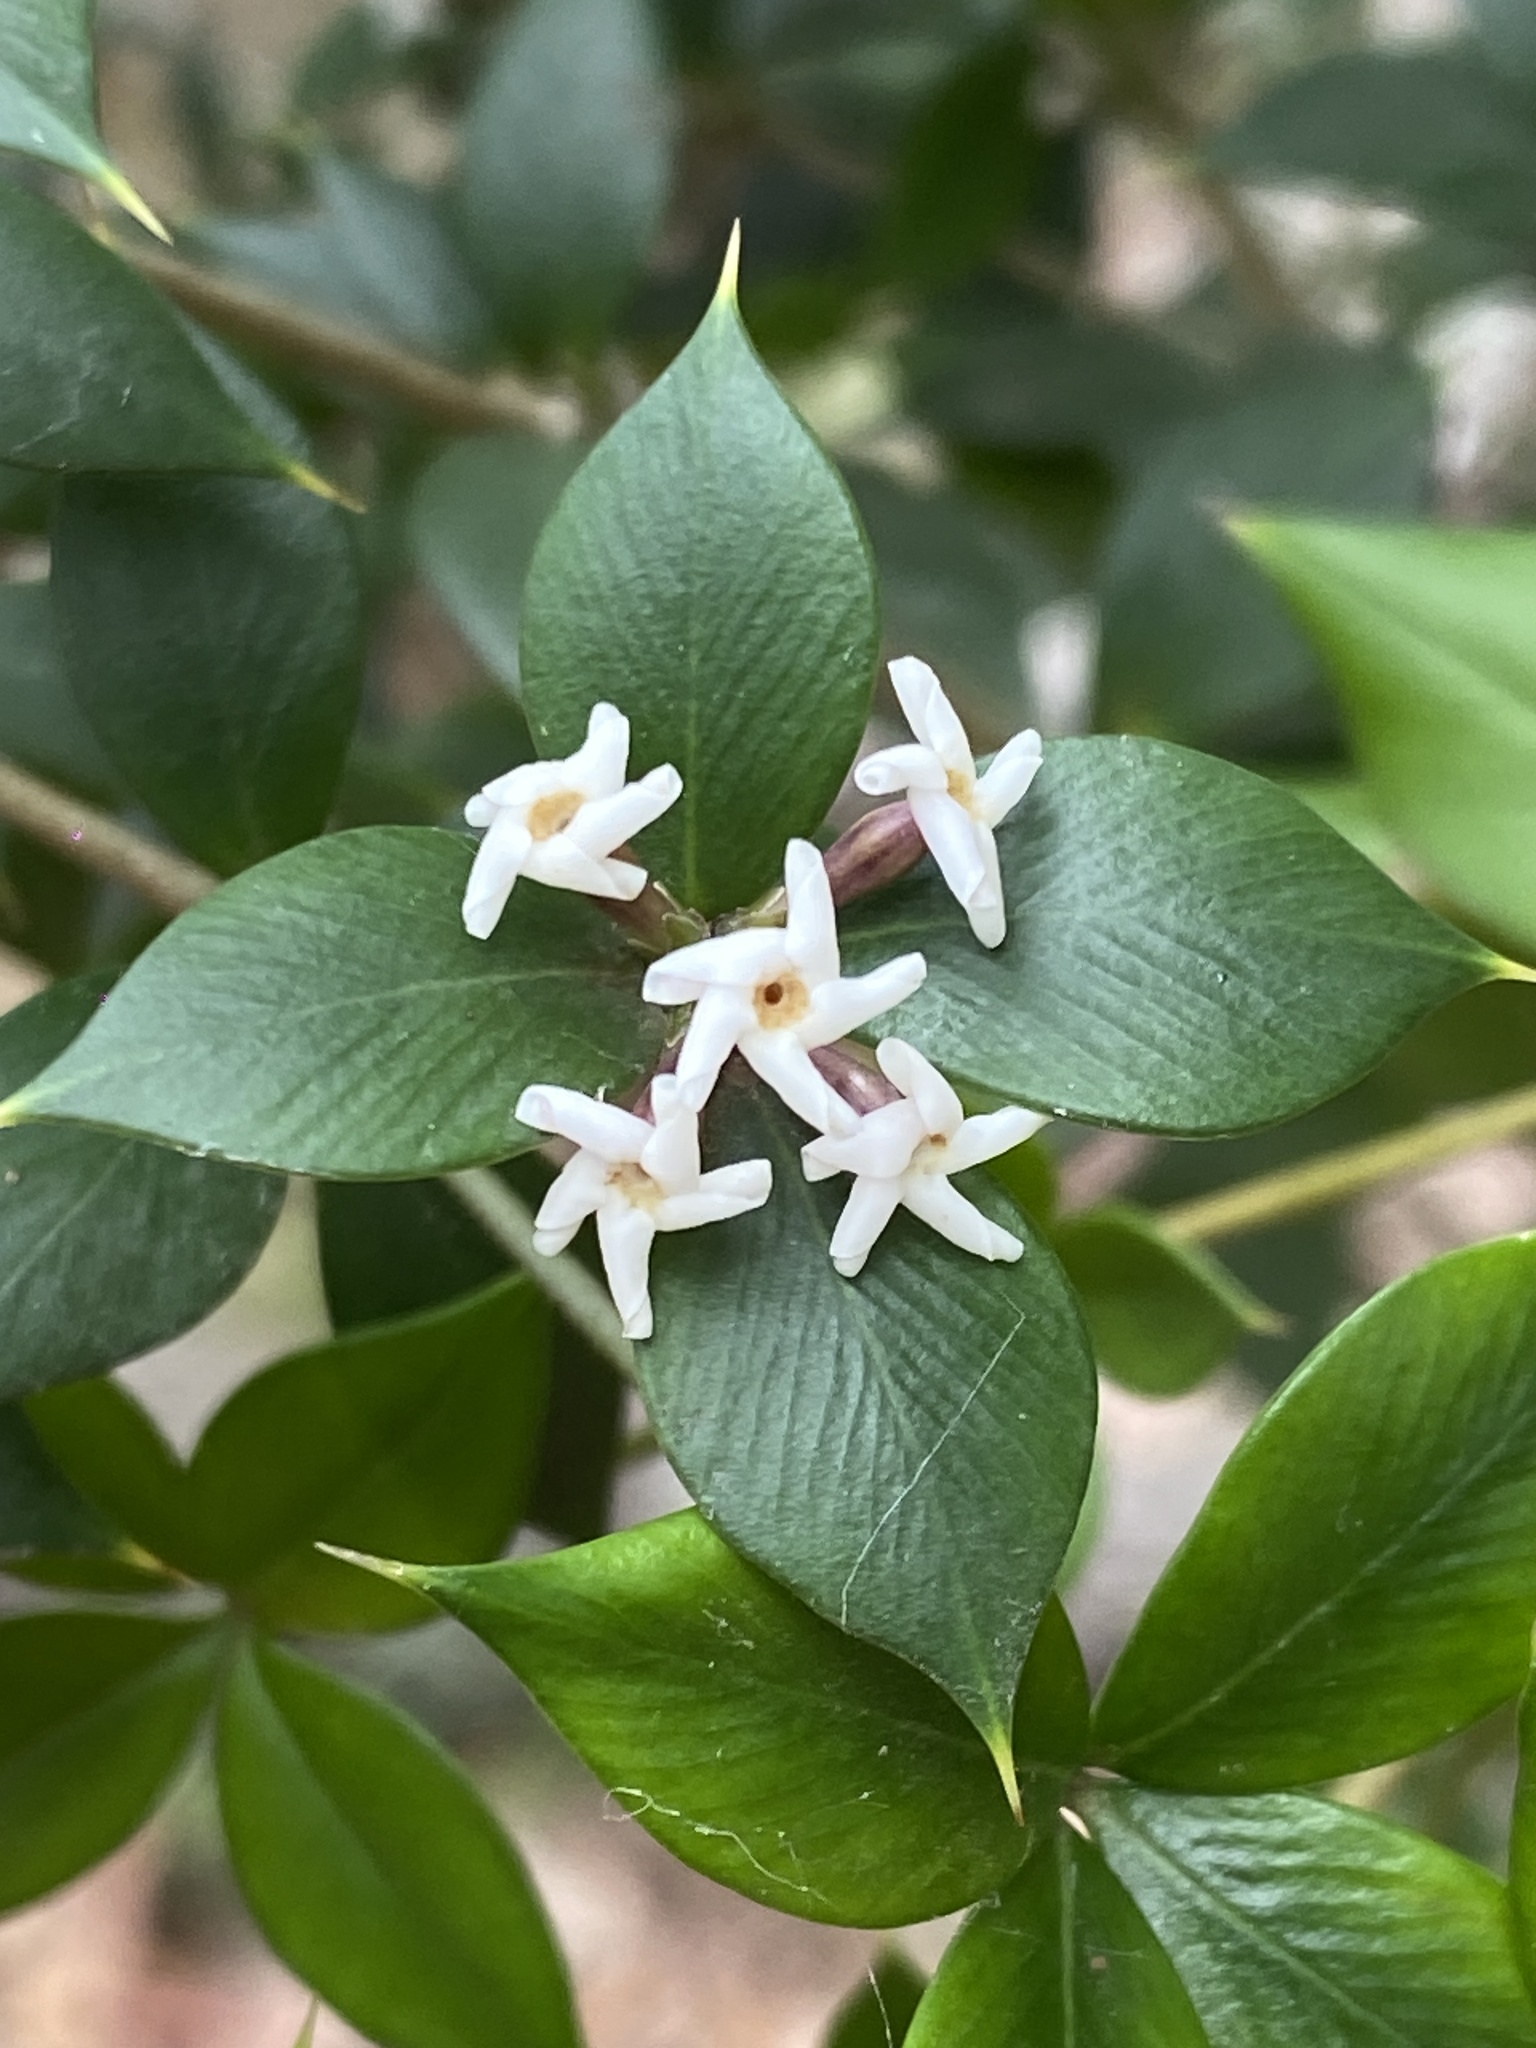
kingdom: Plantae
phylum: Tracheophyta
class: Magnoliopsida
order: Gentianales
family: Apocynaceae
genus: Alyxia
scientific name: Alyxia ruscifolia
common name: Chainfruit
